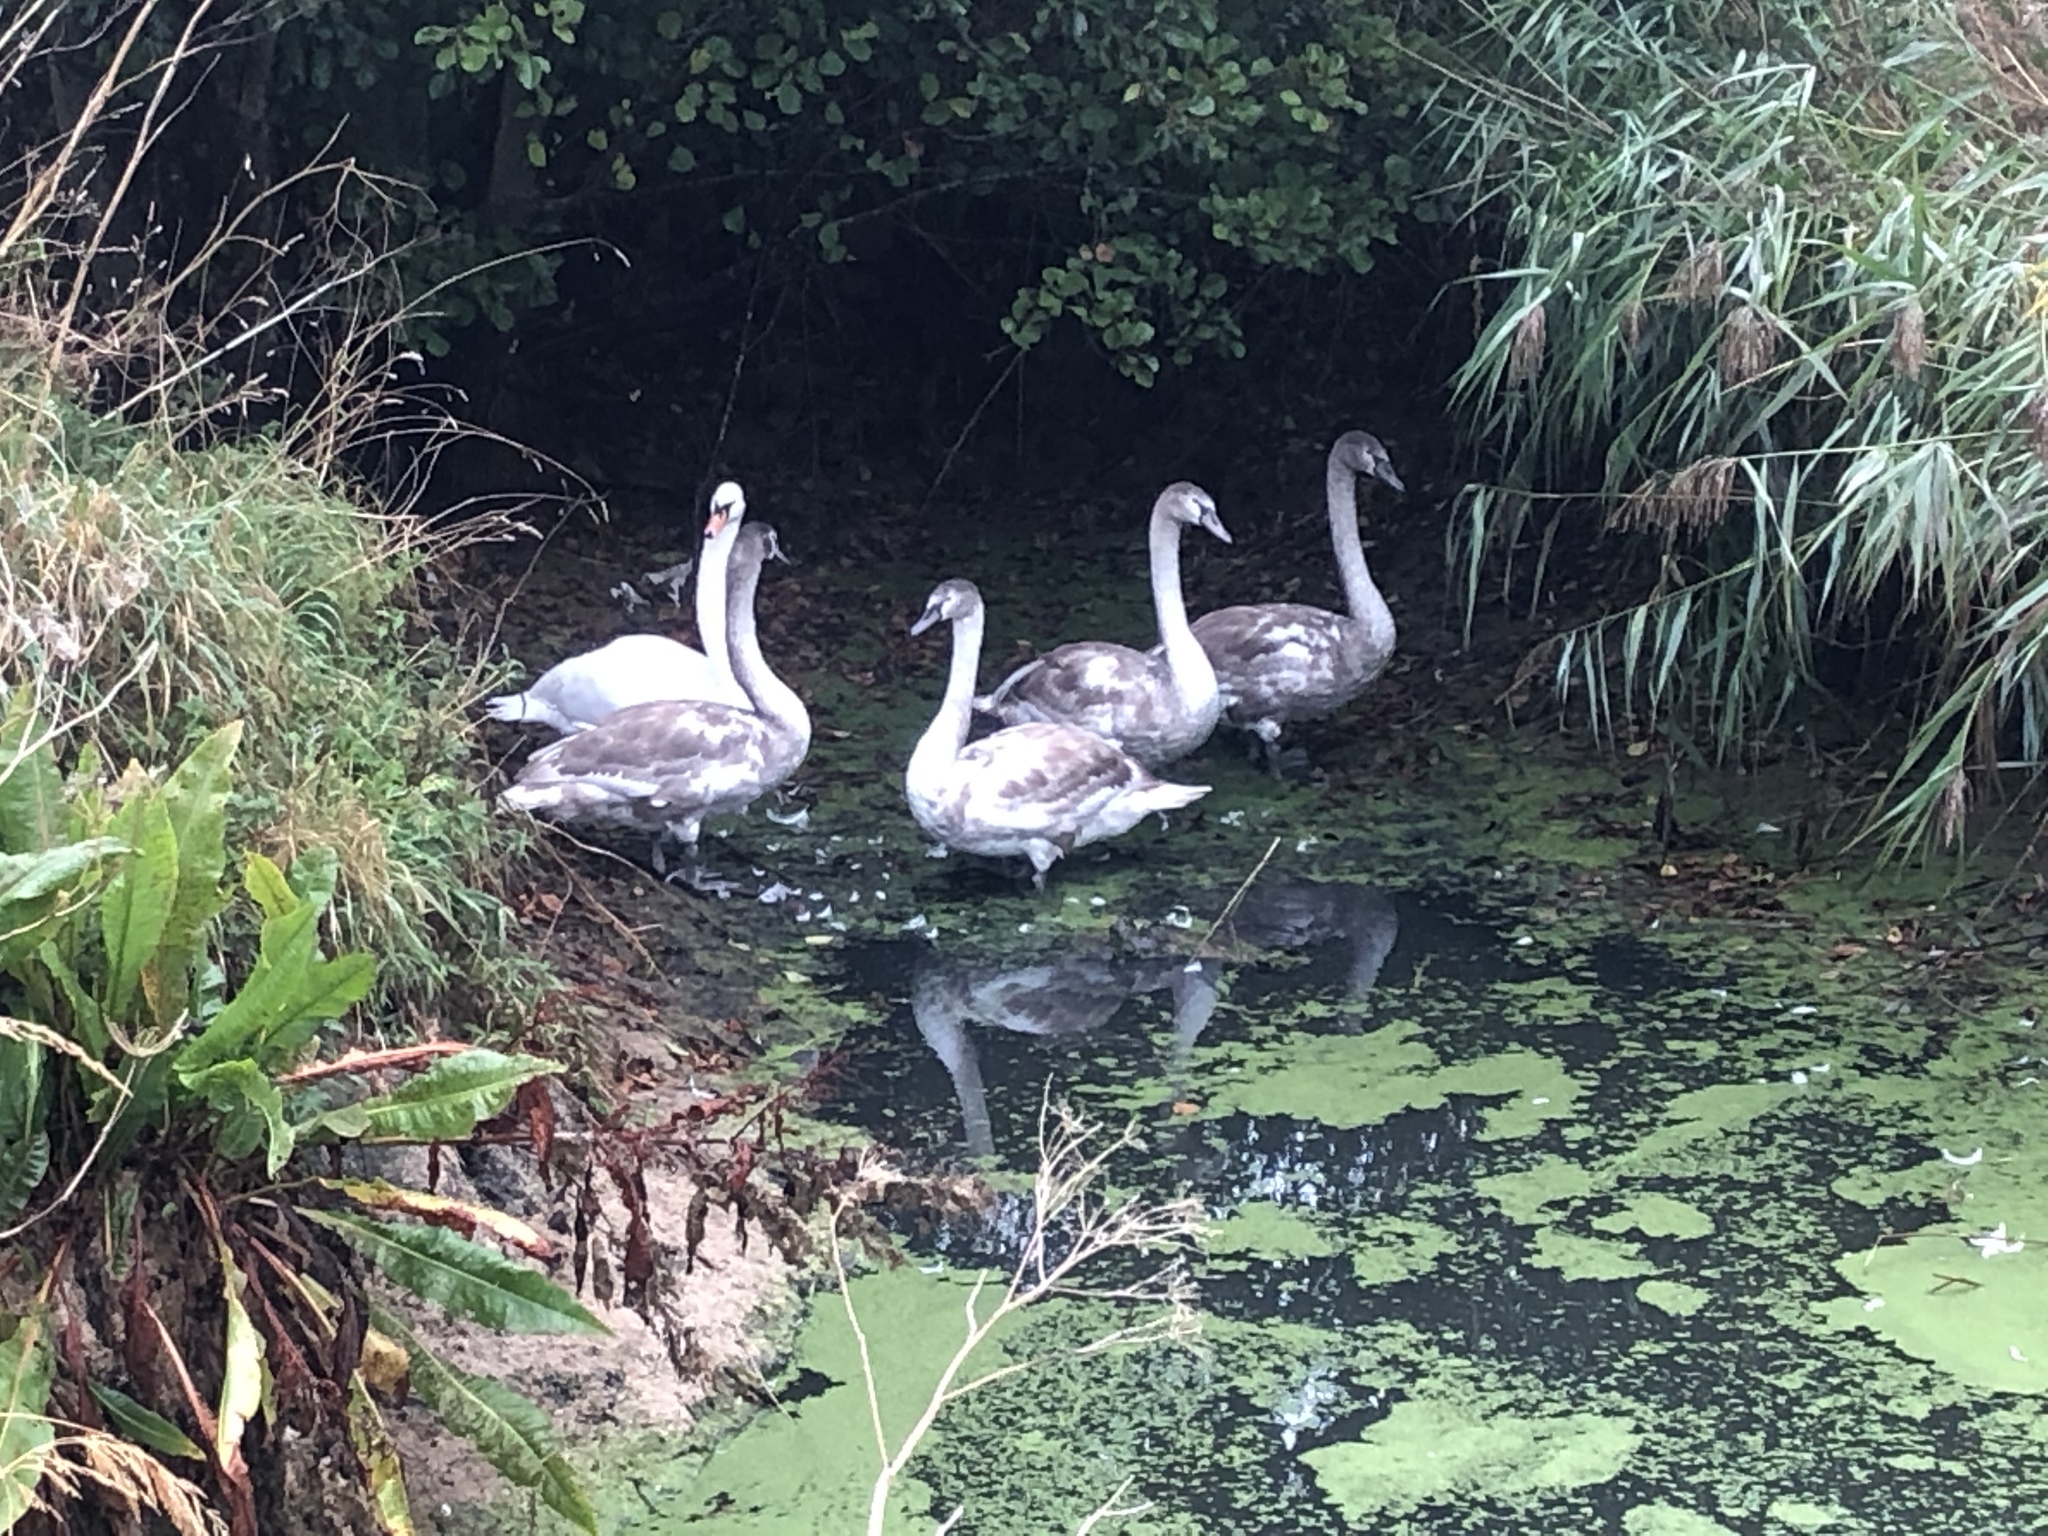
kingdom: Animalia
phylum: Chordata
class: Aves
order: Anseriformes
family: Anatidae
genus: Cygnus
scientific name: Cygnus olor
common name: Mute swan
